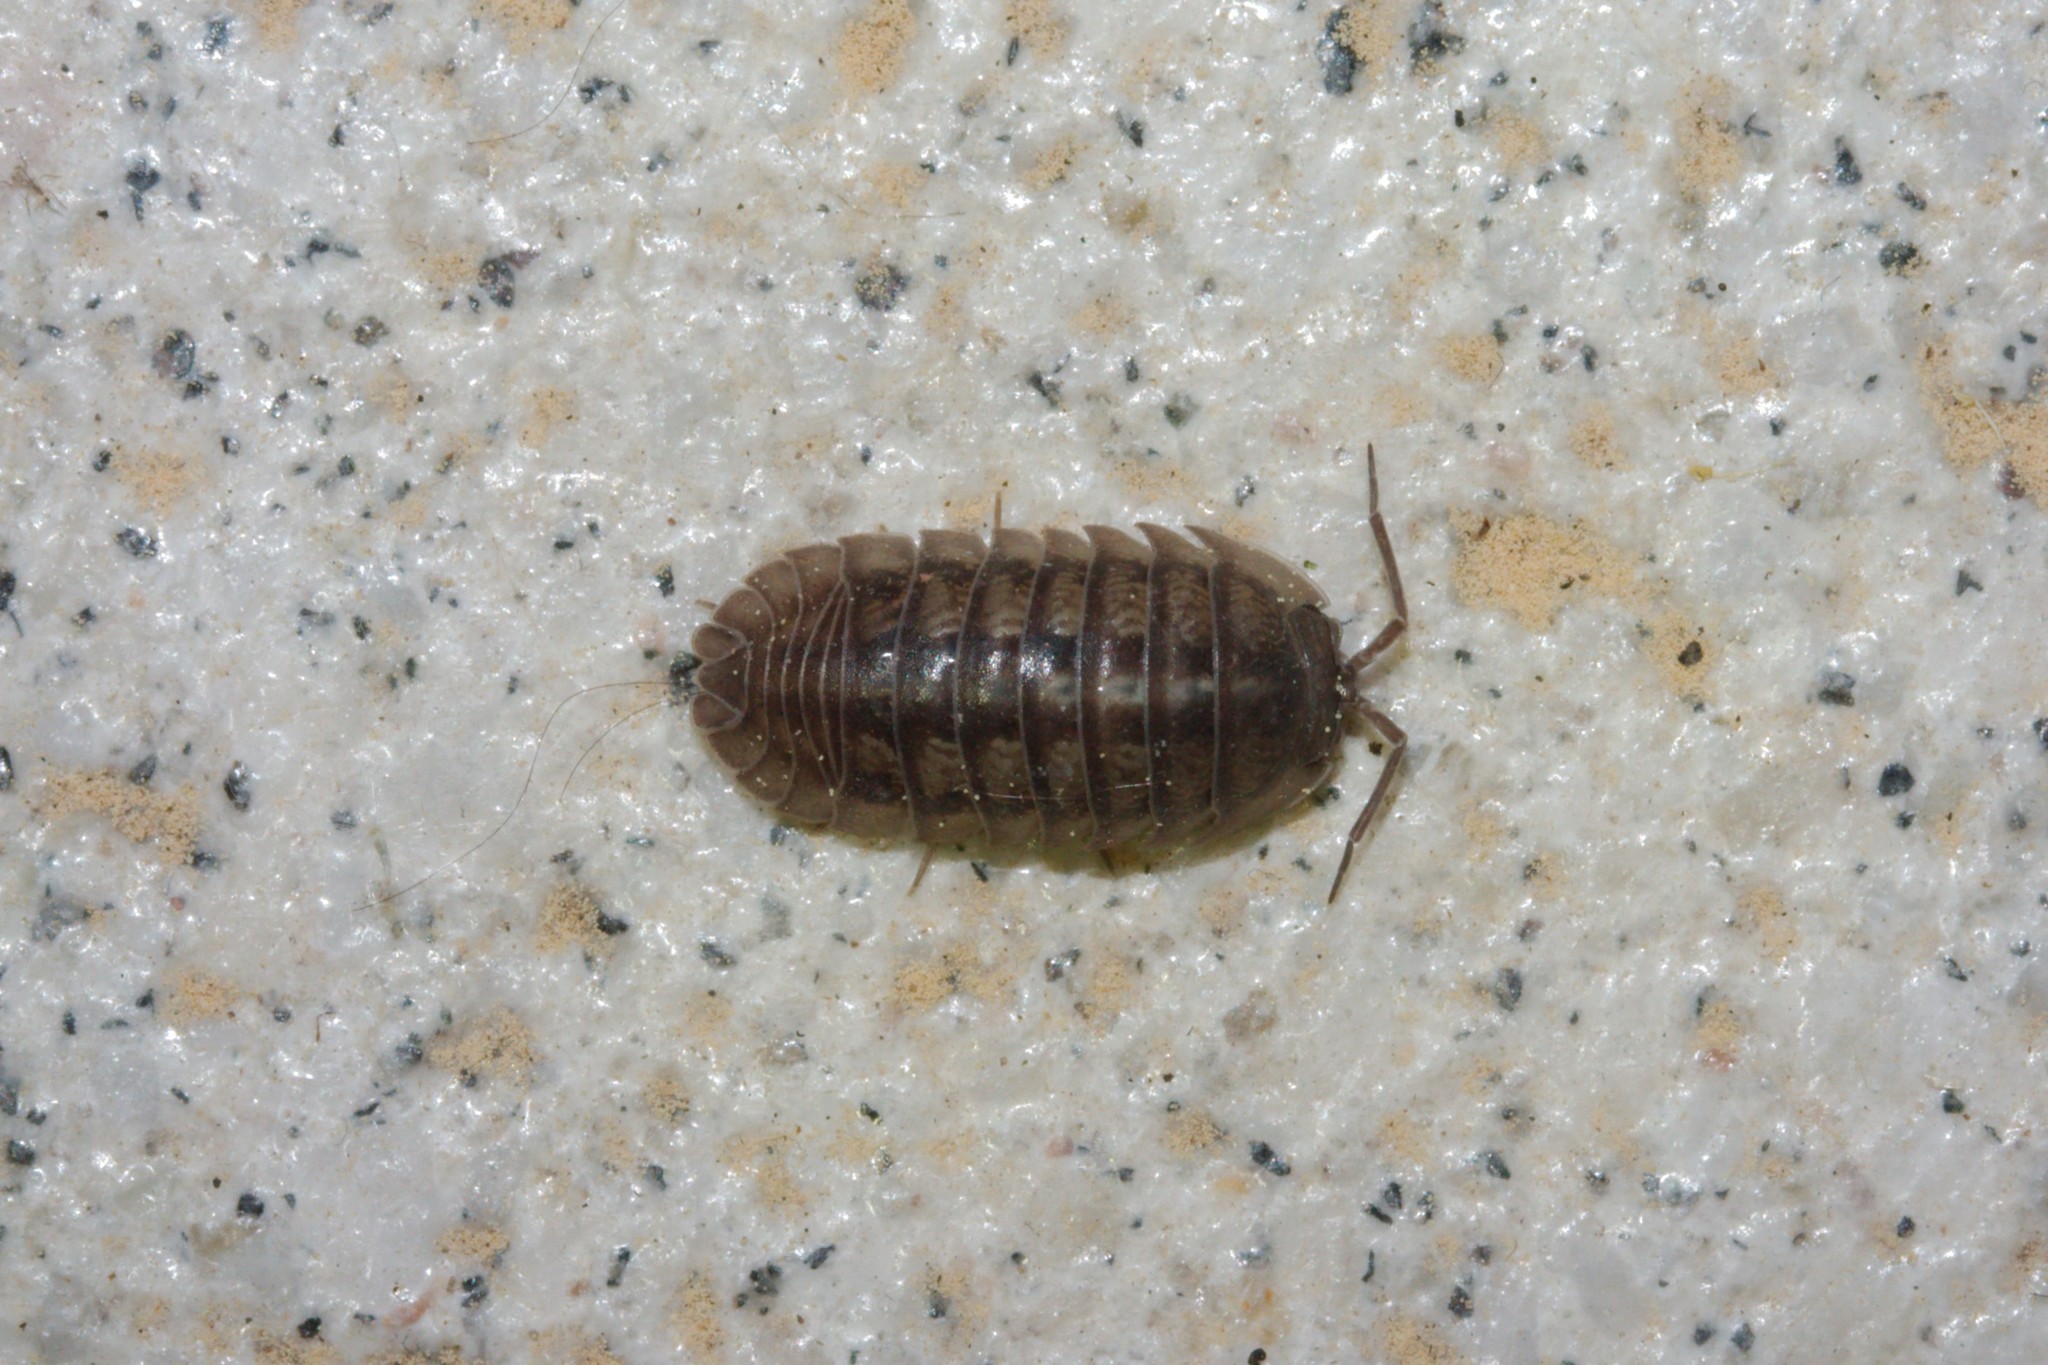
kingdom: Animalia
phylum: Arthropoda
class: Malacostraca
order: Isopoda
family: Armadillidiidae
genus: Armadillidium
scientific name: Armadillidium nasatum
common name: Isopod
